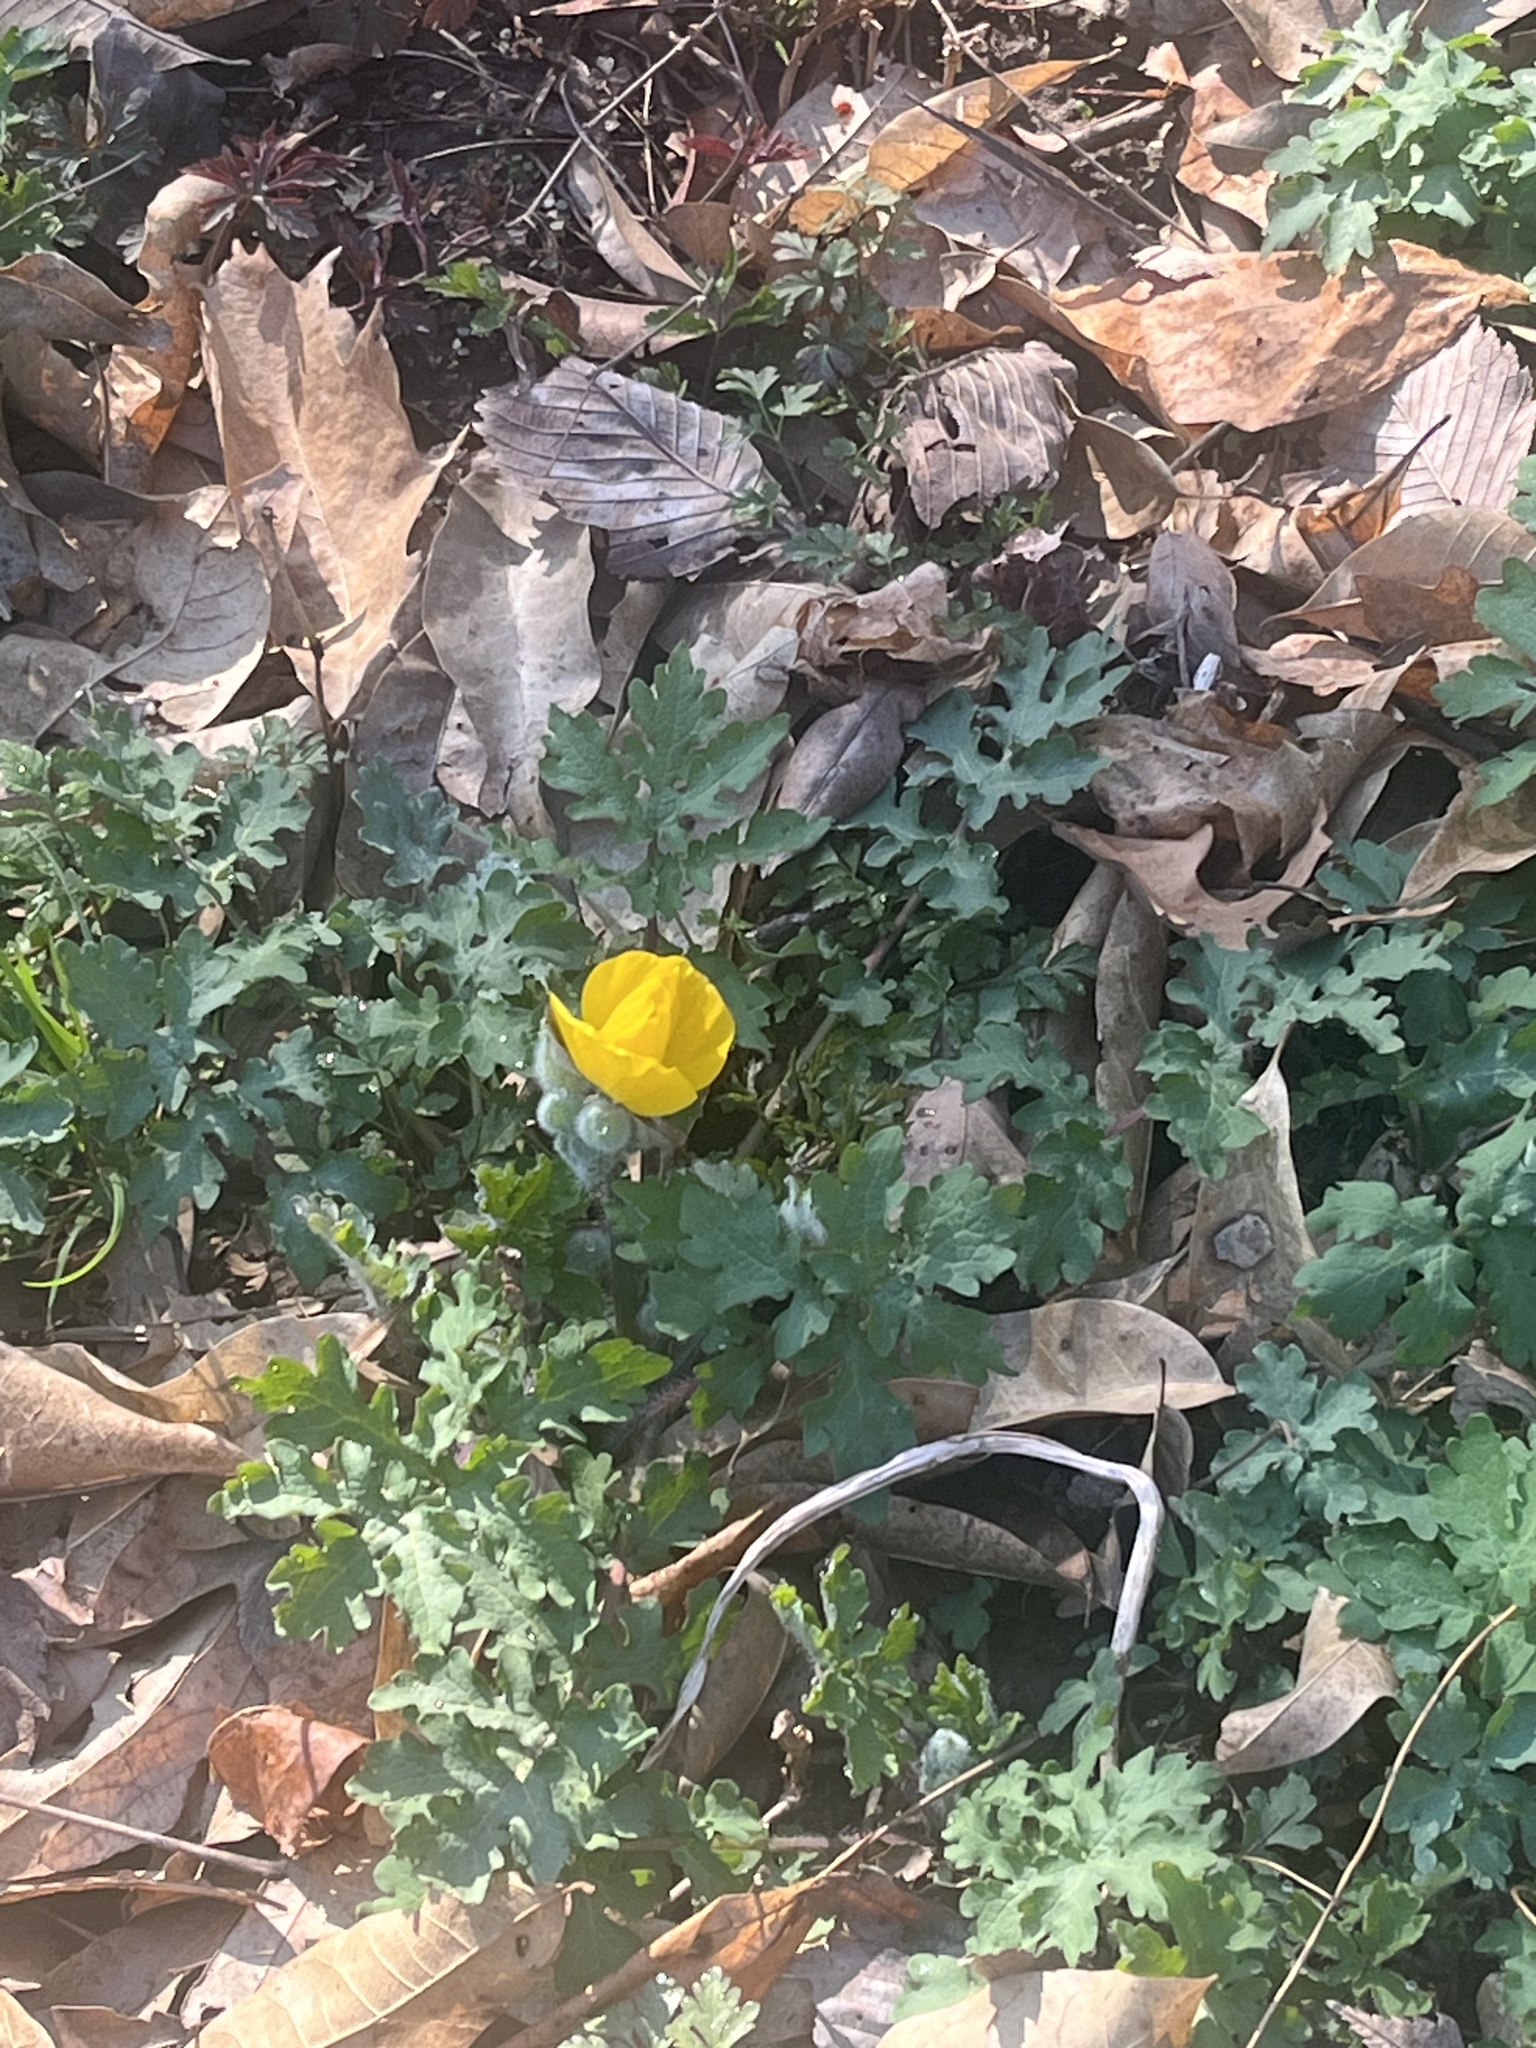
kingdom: Plantae
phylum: Tracheophyta
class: Magnoliopsida
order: Ranunculales
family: Papaveraceae
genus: Stylophorum
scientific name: Stylophorum diphyllum
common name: Celandine poppy
